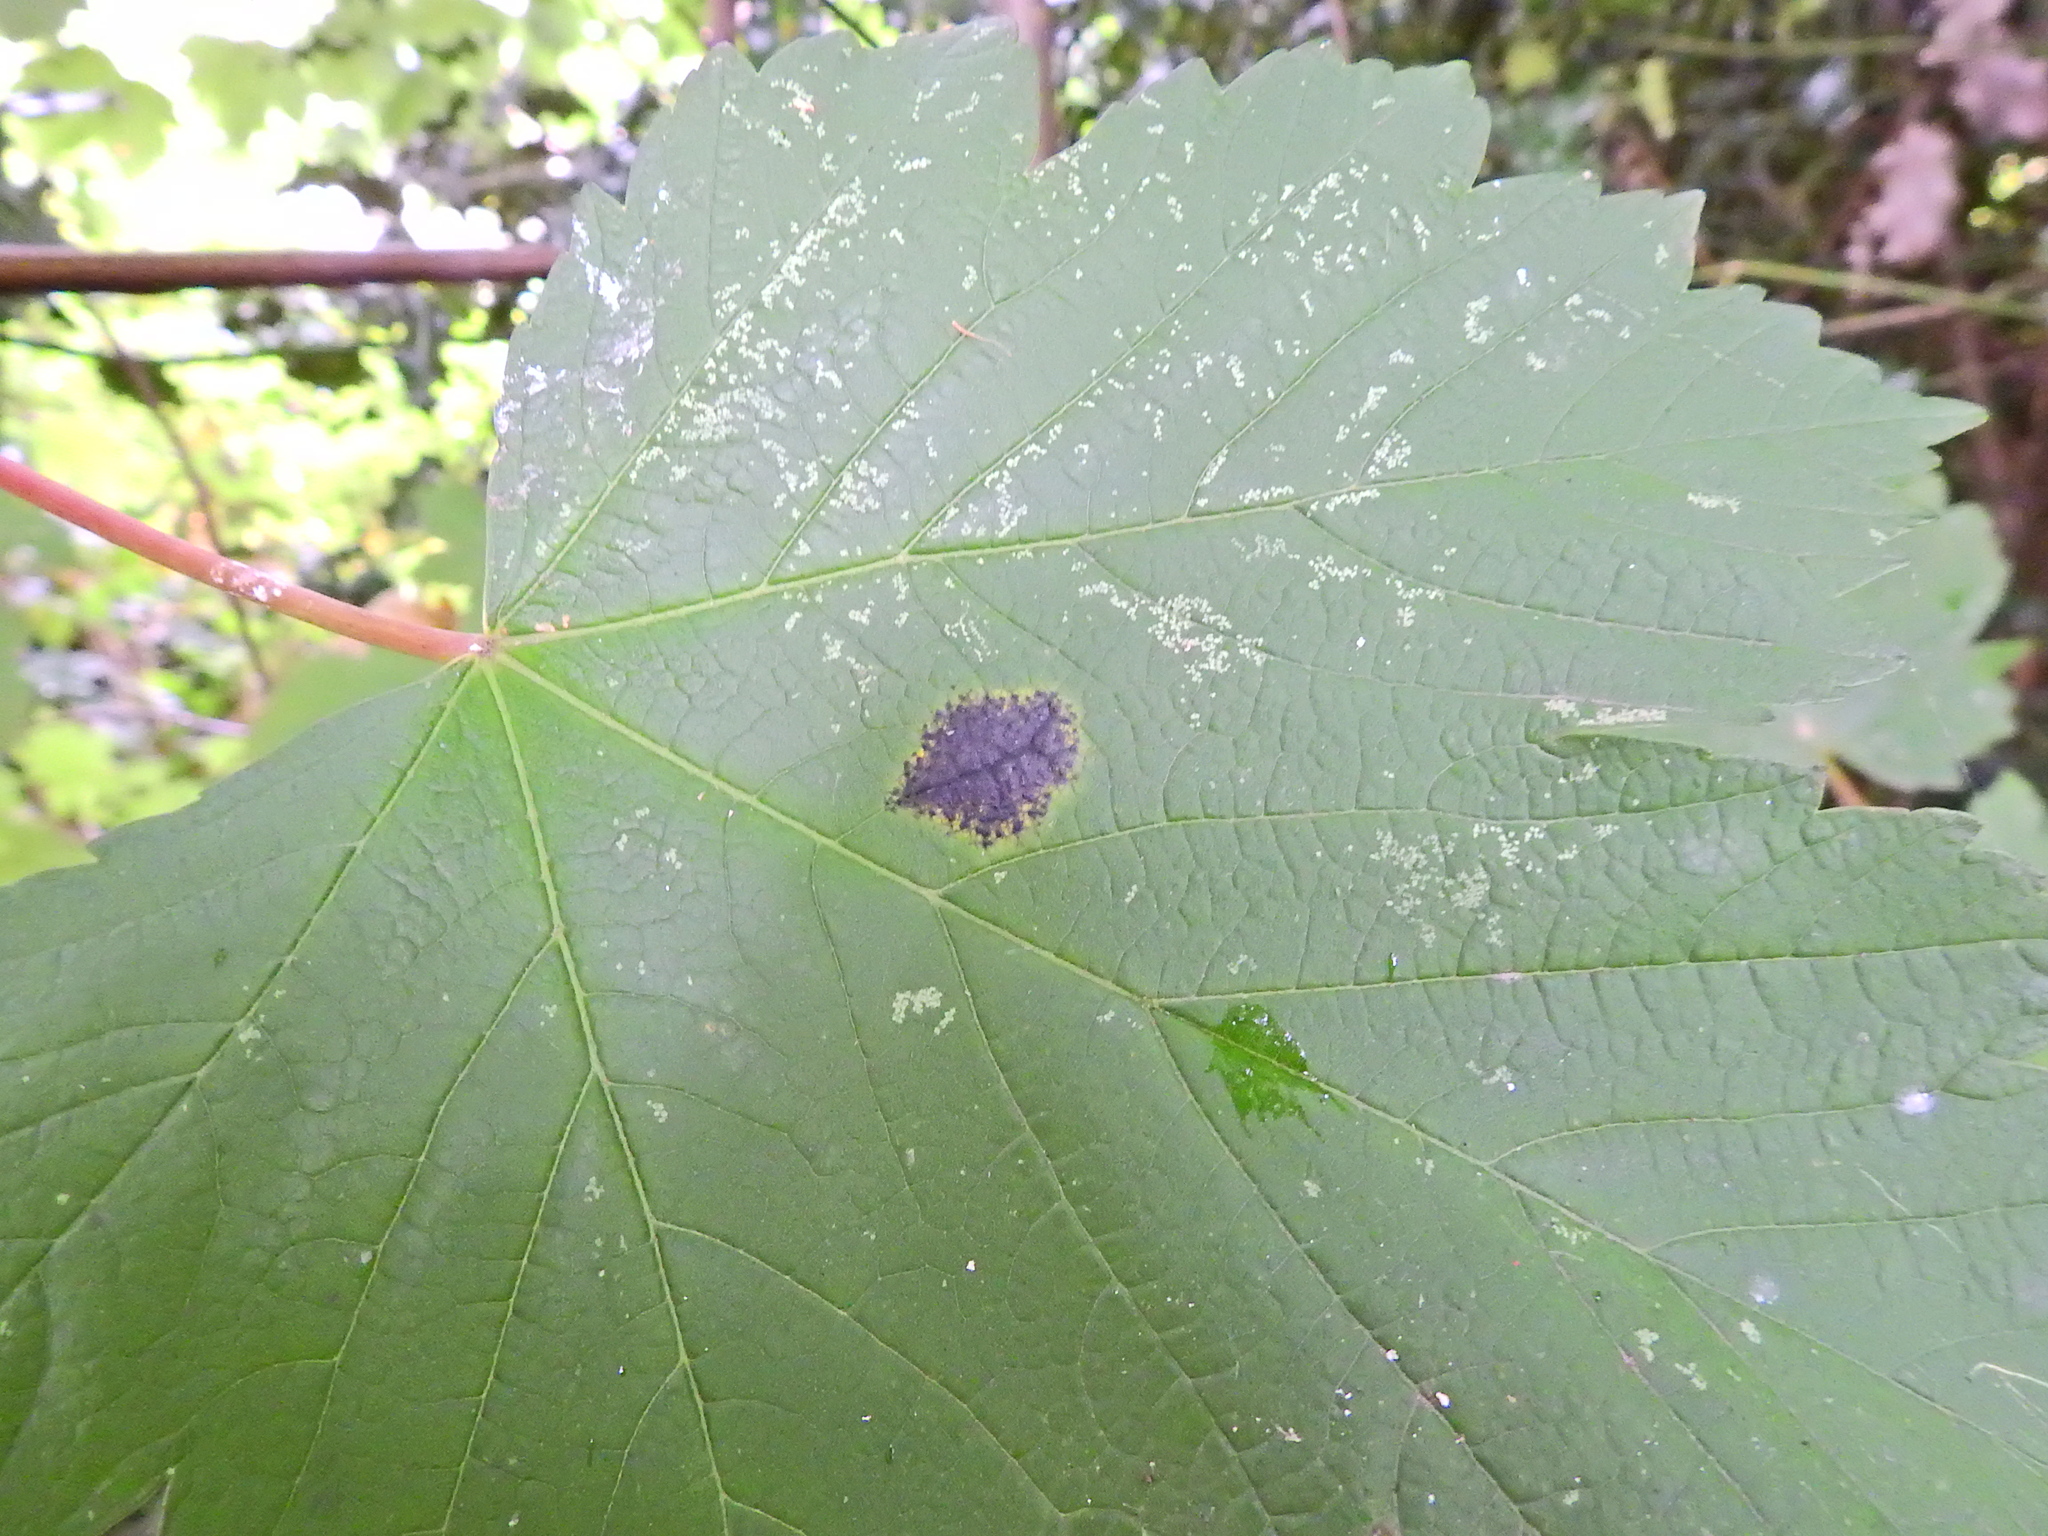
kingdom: Fungi
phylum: Ascomycota
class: Leotiomycetes
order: Rhytismatales
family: Rhytismataceae
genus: Rhytisma
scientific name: Rhytisma acerinum
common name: European tar spot
